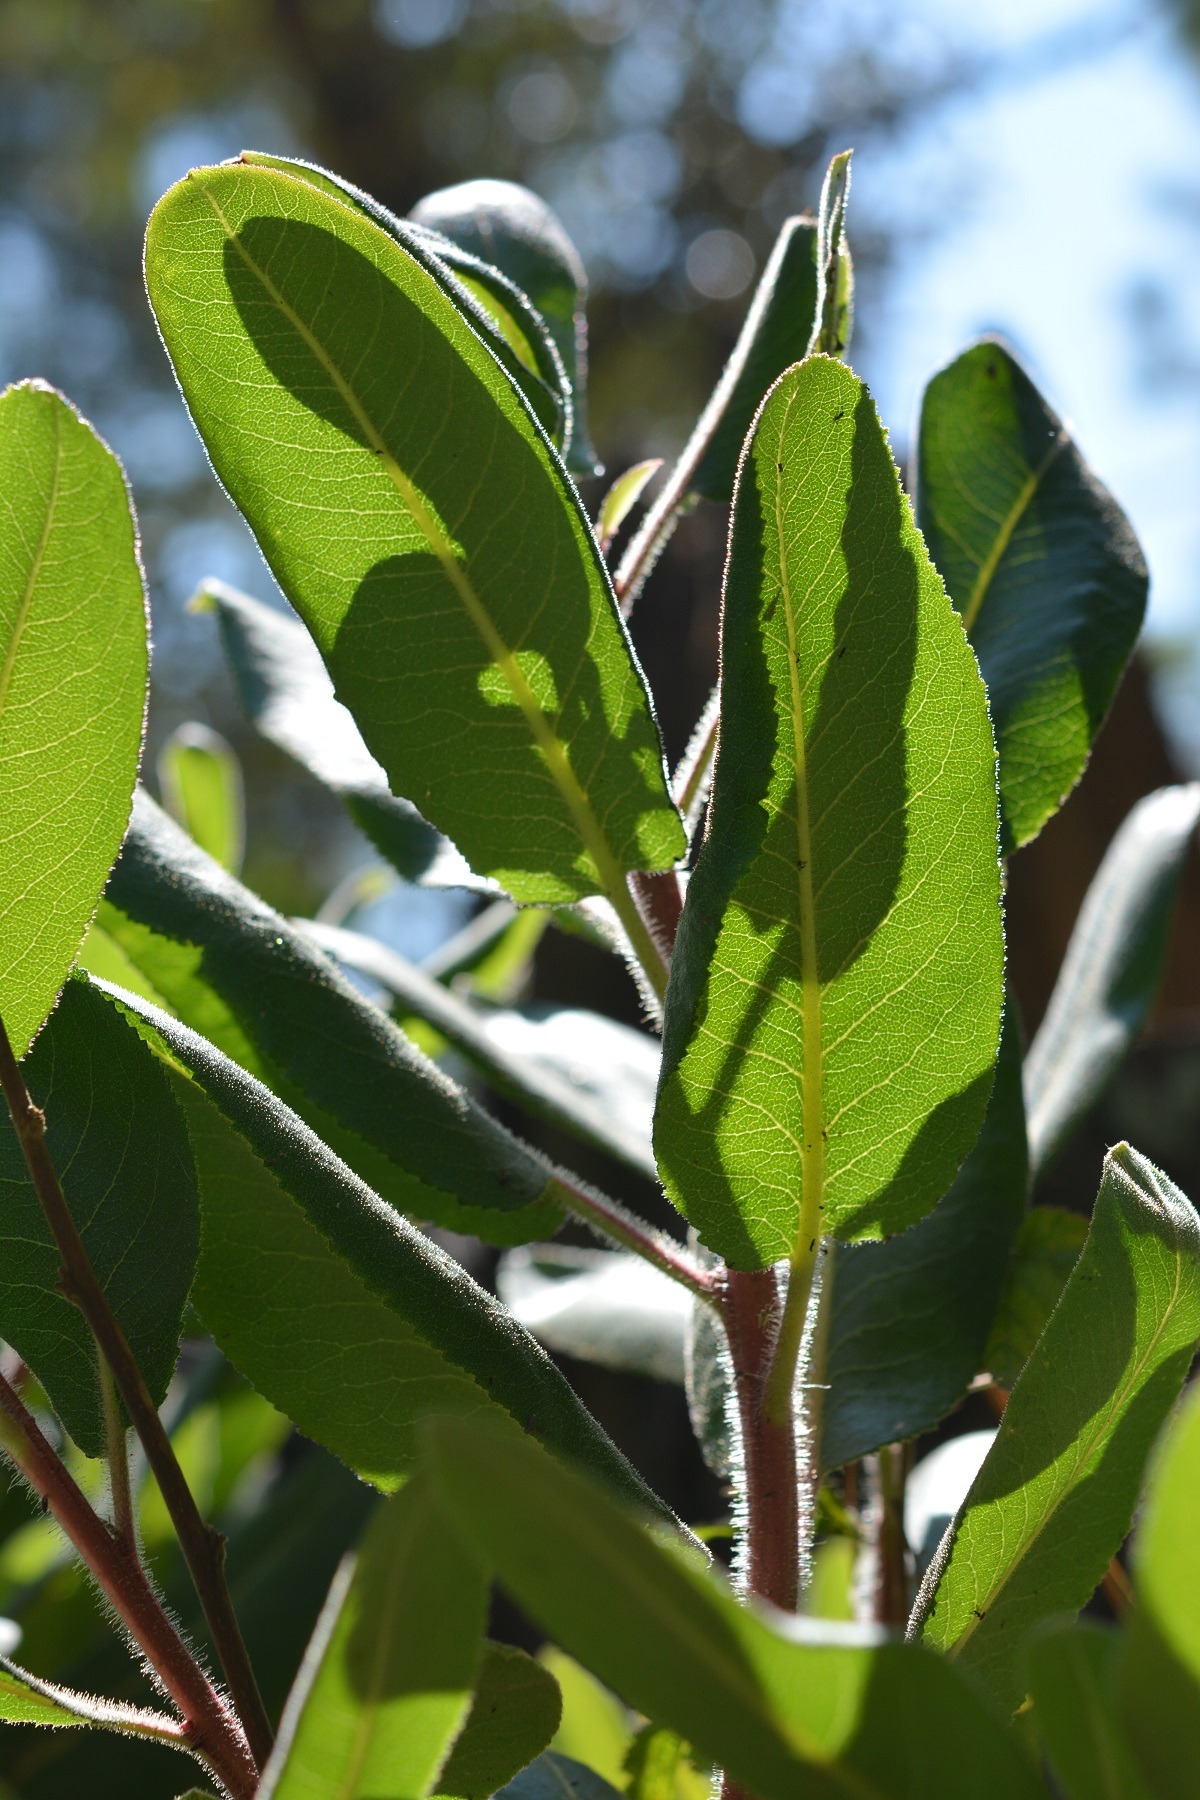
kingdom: Plantae
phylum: Tracheophyta
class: Magnoliopsida
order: Ericales
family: Ericaceae
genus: Arbutus
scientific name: Arbutus xalapensis
